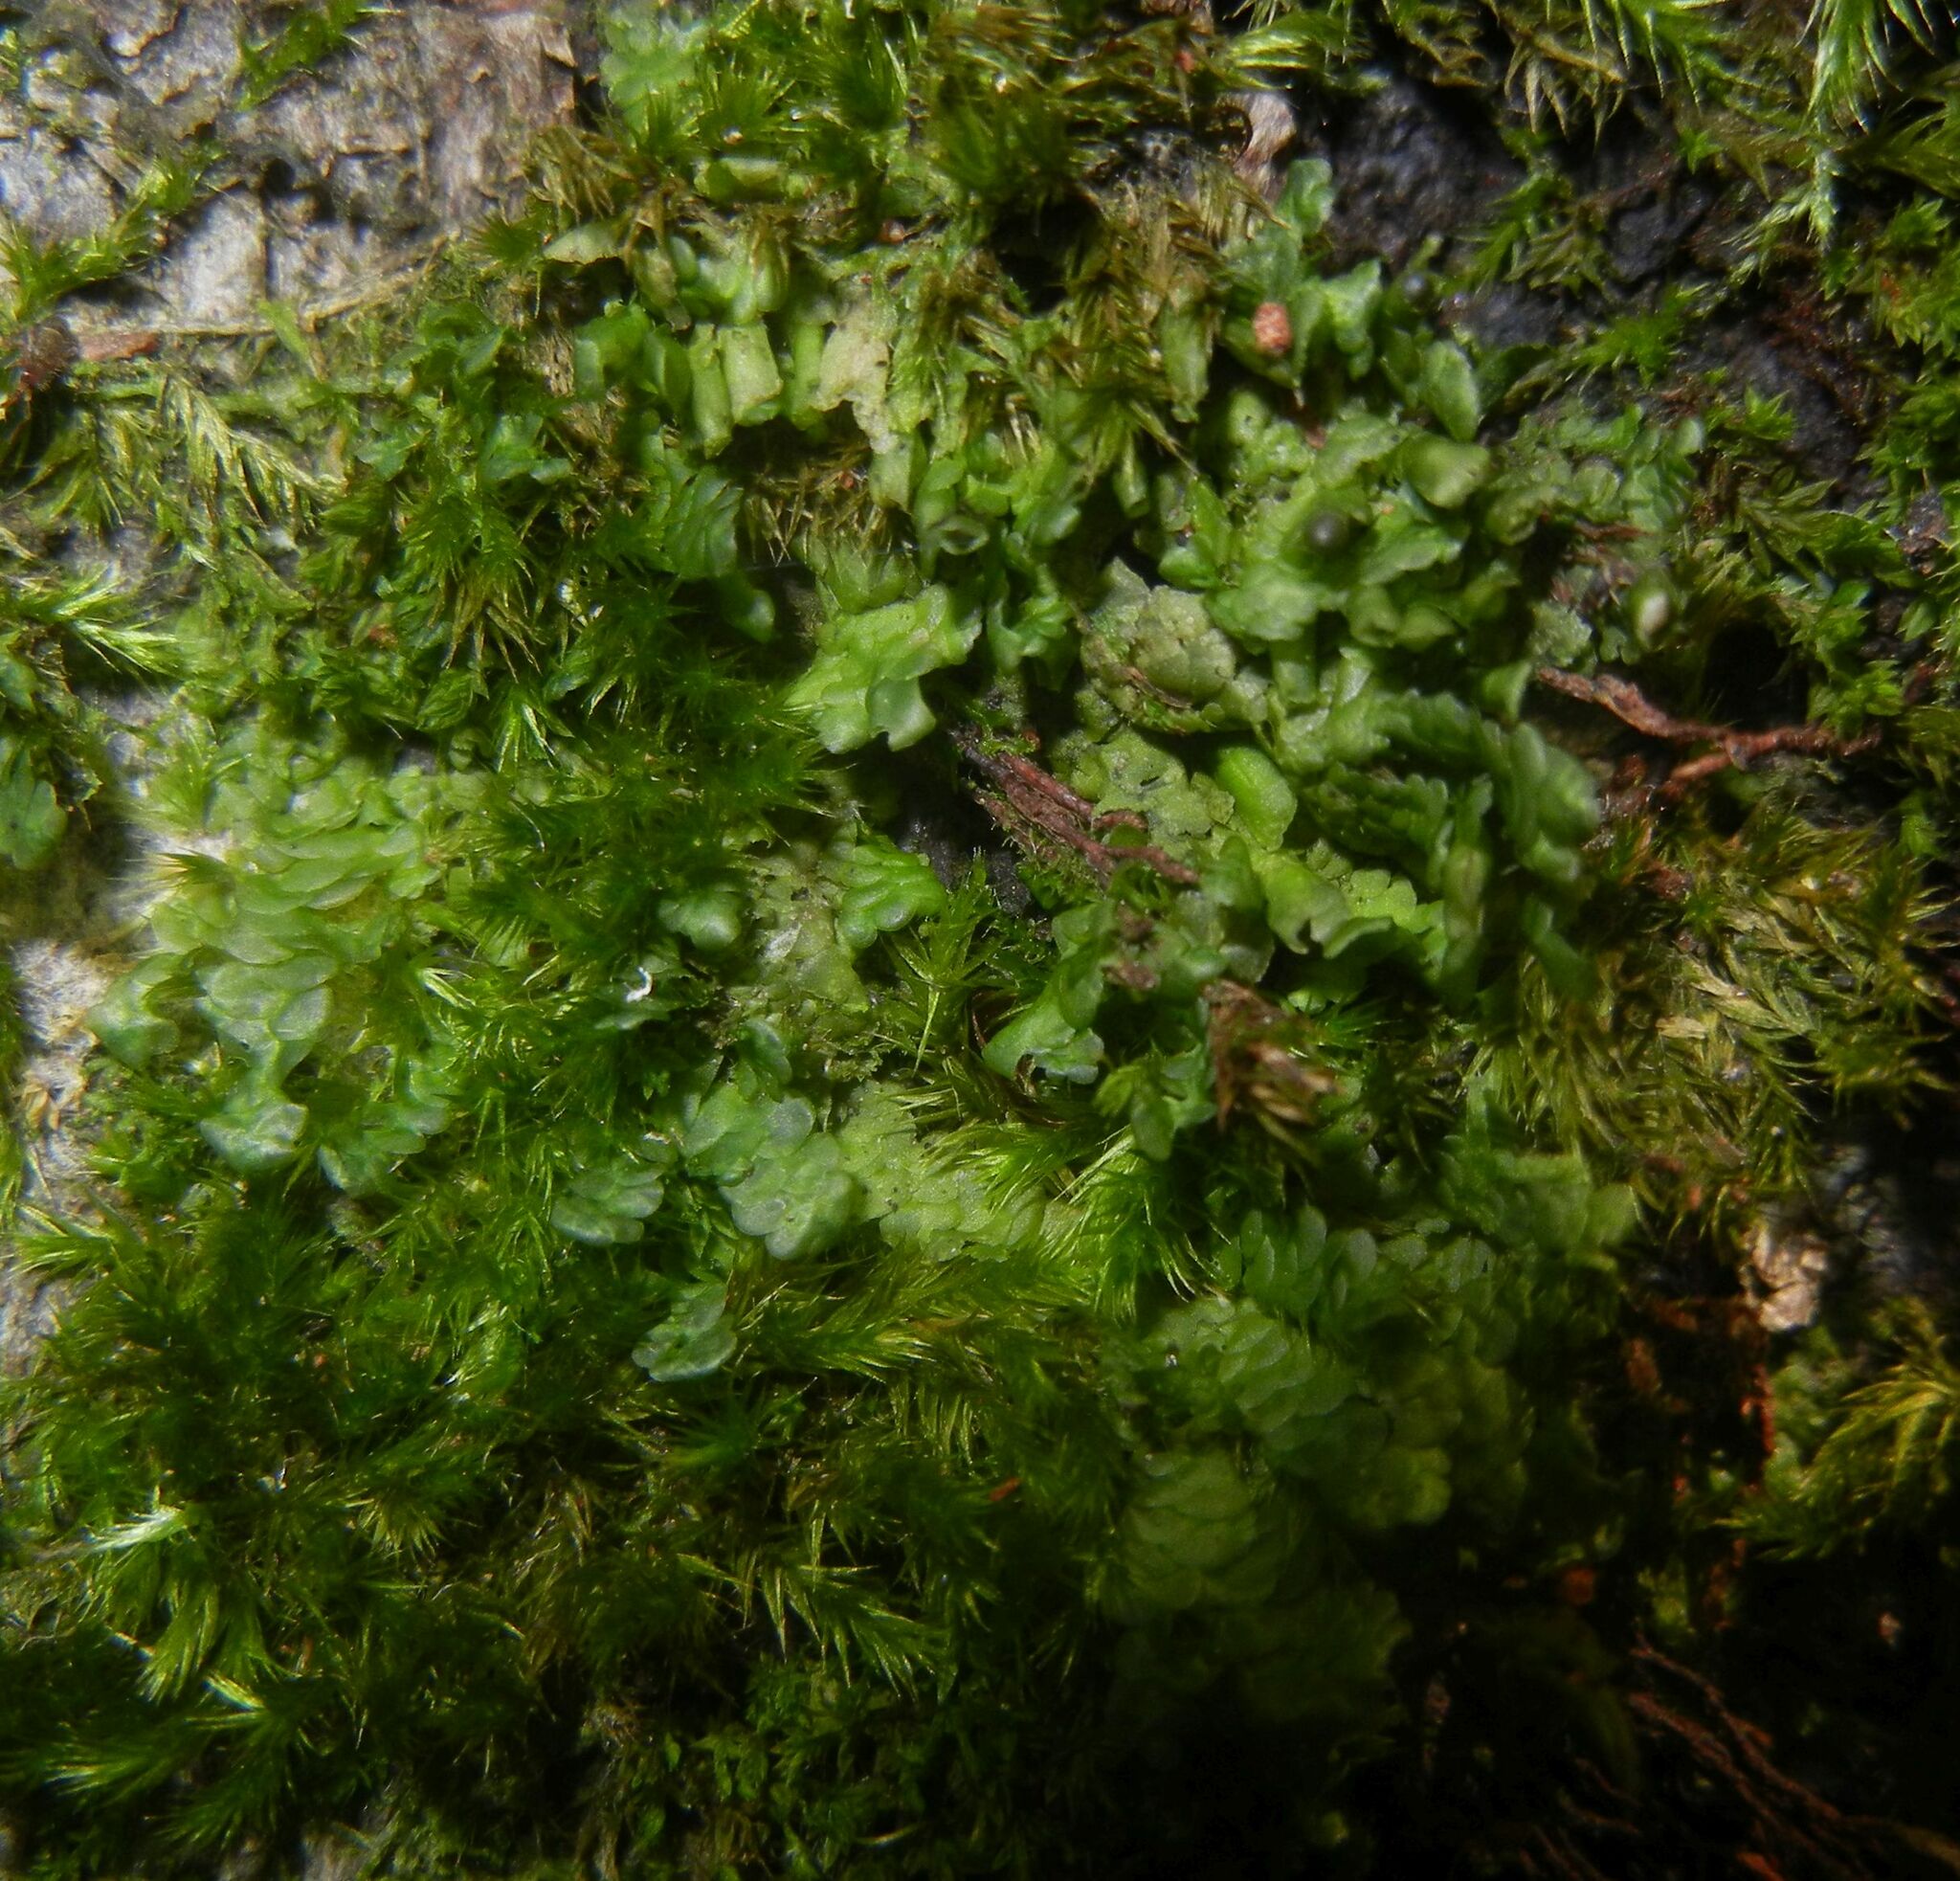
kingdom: Plantae
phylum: Marchantiophyta
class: Jungermanniopsida
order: Porellales
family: Radulaceae
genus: Radula
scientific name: Radula complanata
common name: Flat-leaved scalewort
